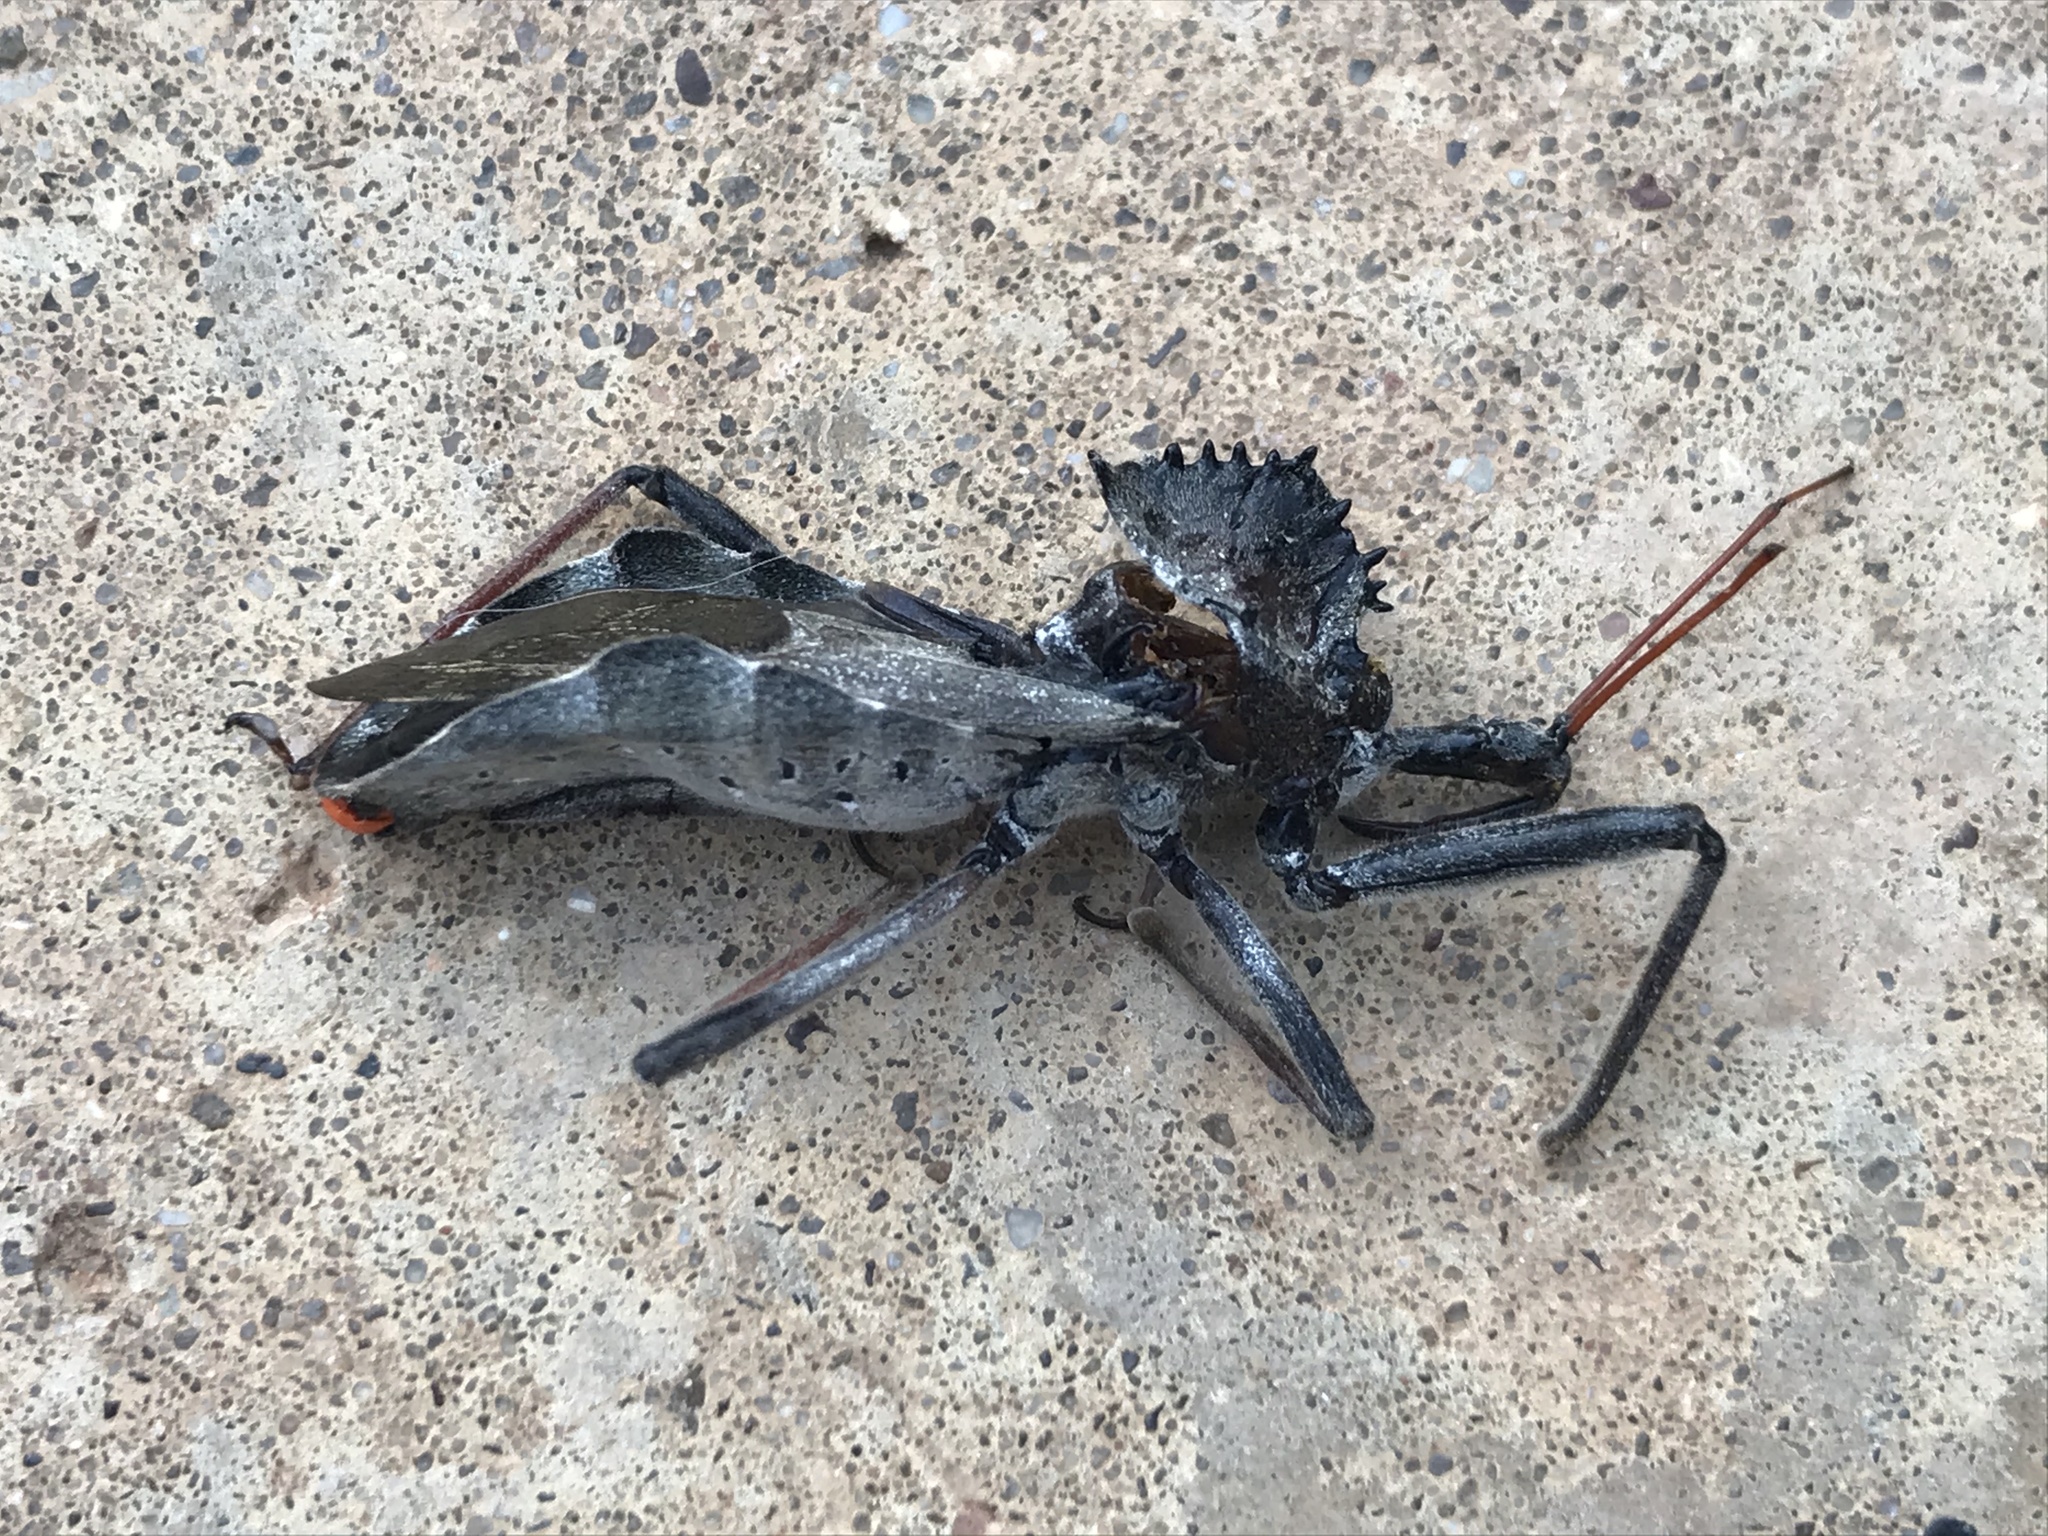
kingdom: Animalia
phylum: Arthropoda
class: Insecta
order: Hemiptera
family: Reduviidae
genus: Arilus
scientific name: Arilus cristatus
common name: North american wheel bug
